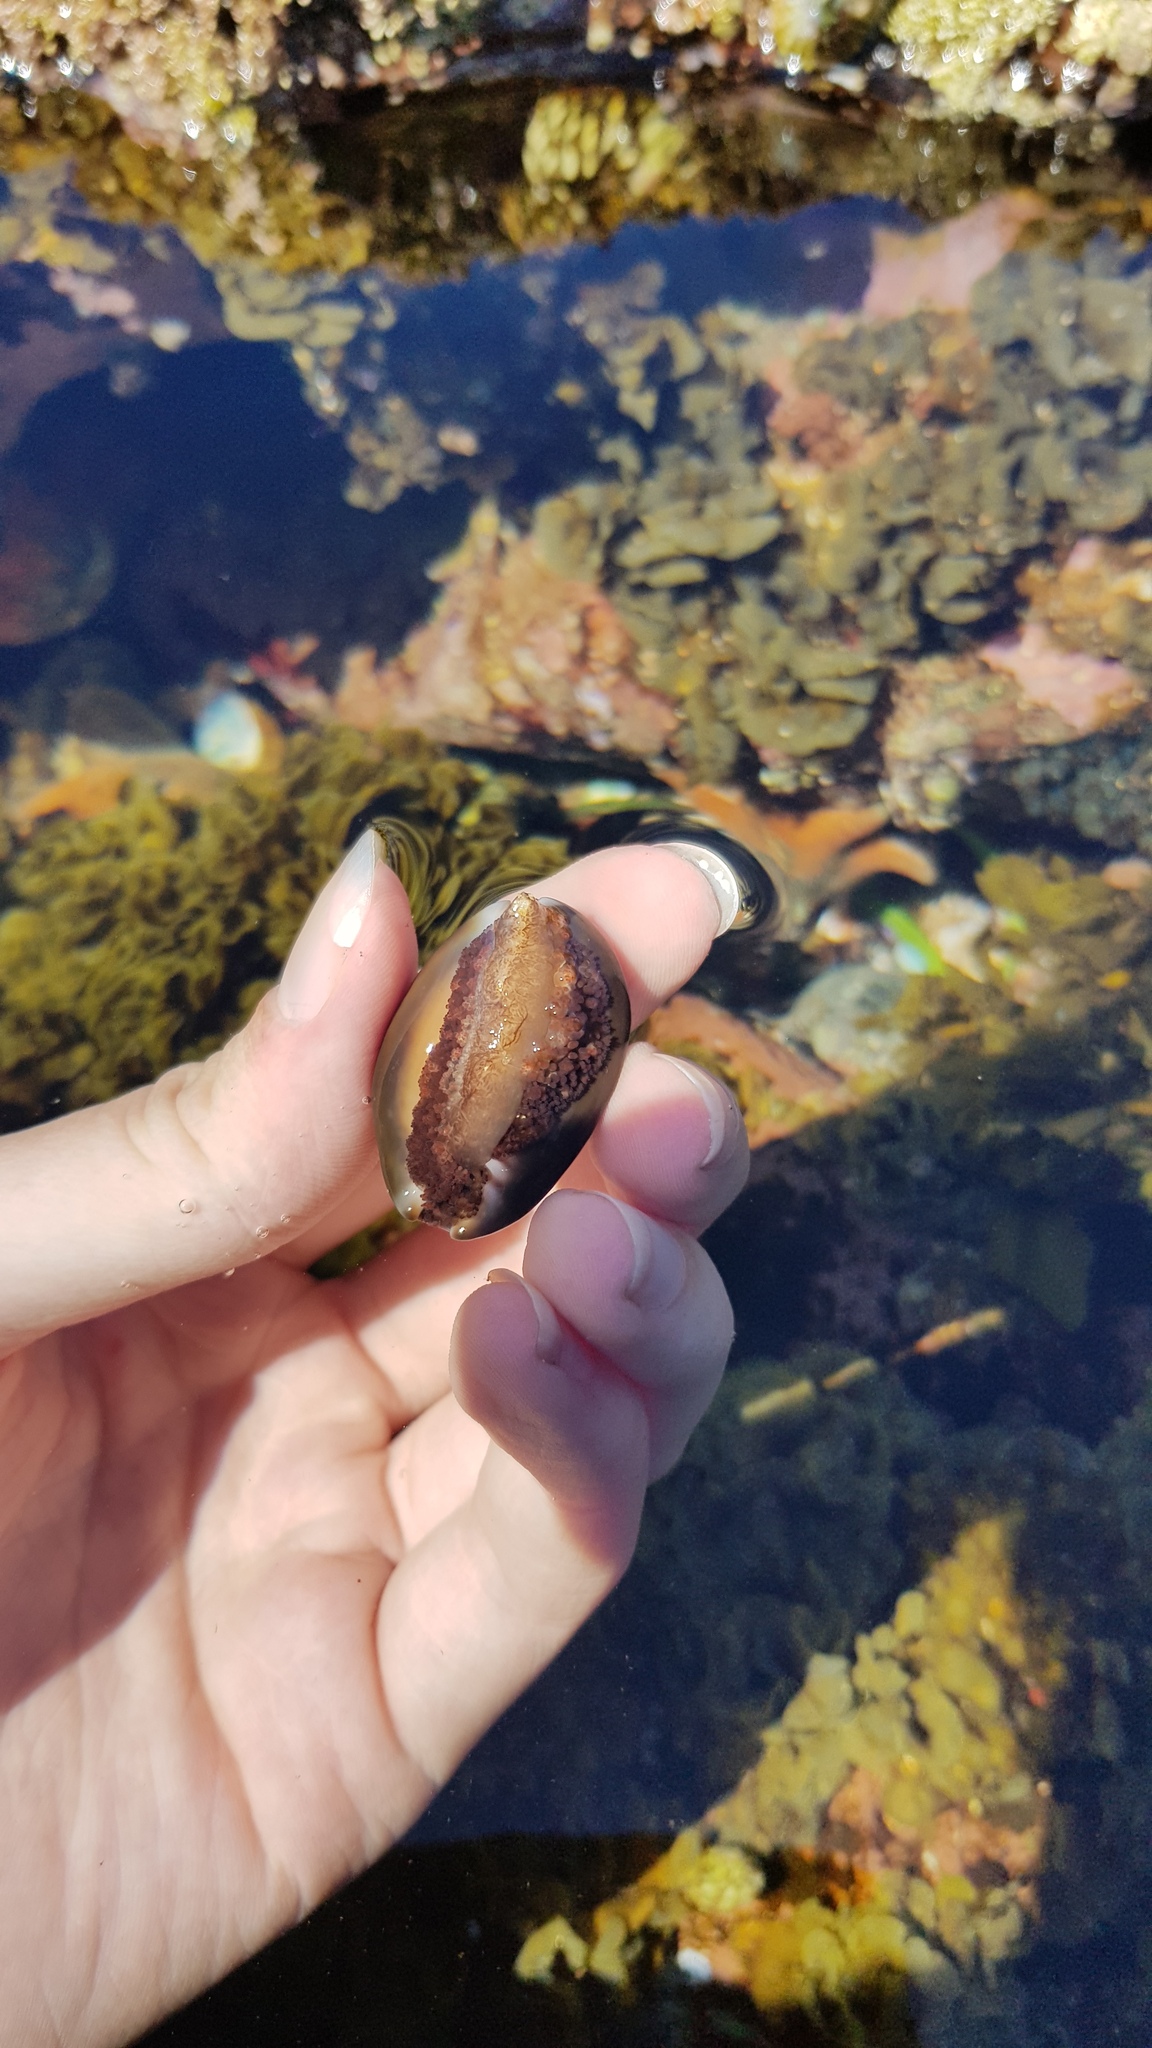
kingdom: Animalia
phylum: Mollusca
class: Gastropoda
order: Littorinimorpha
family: Cypraeidae
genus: Monetaria
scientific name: Monetaria caputserpentis
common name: Serpent's head cowrie
